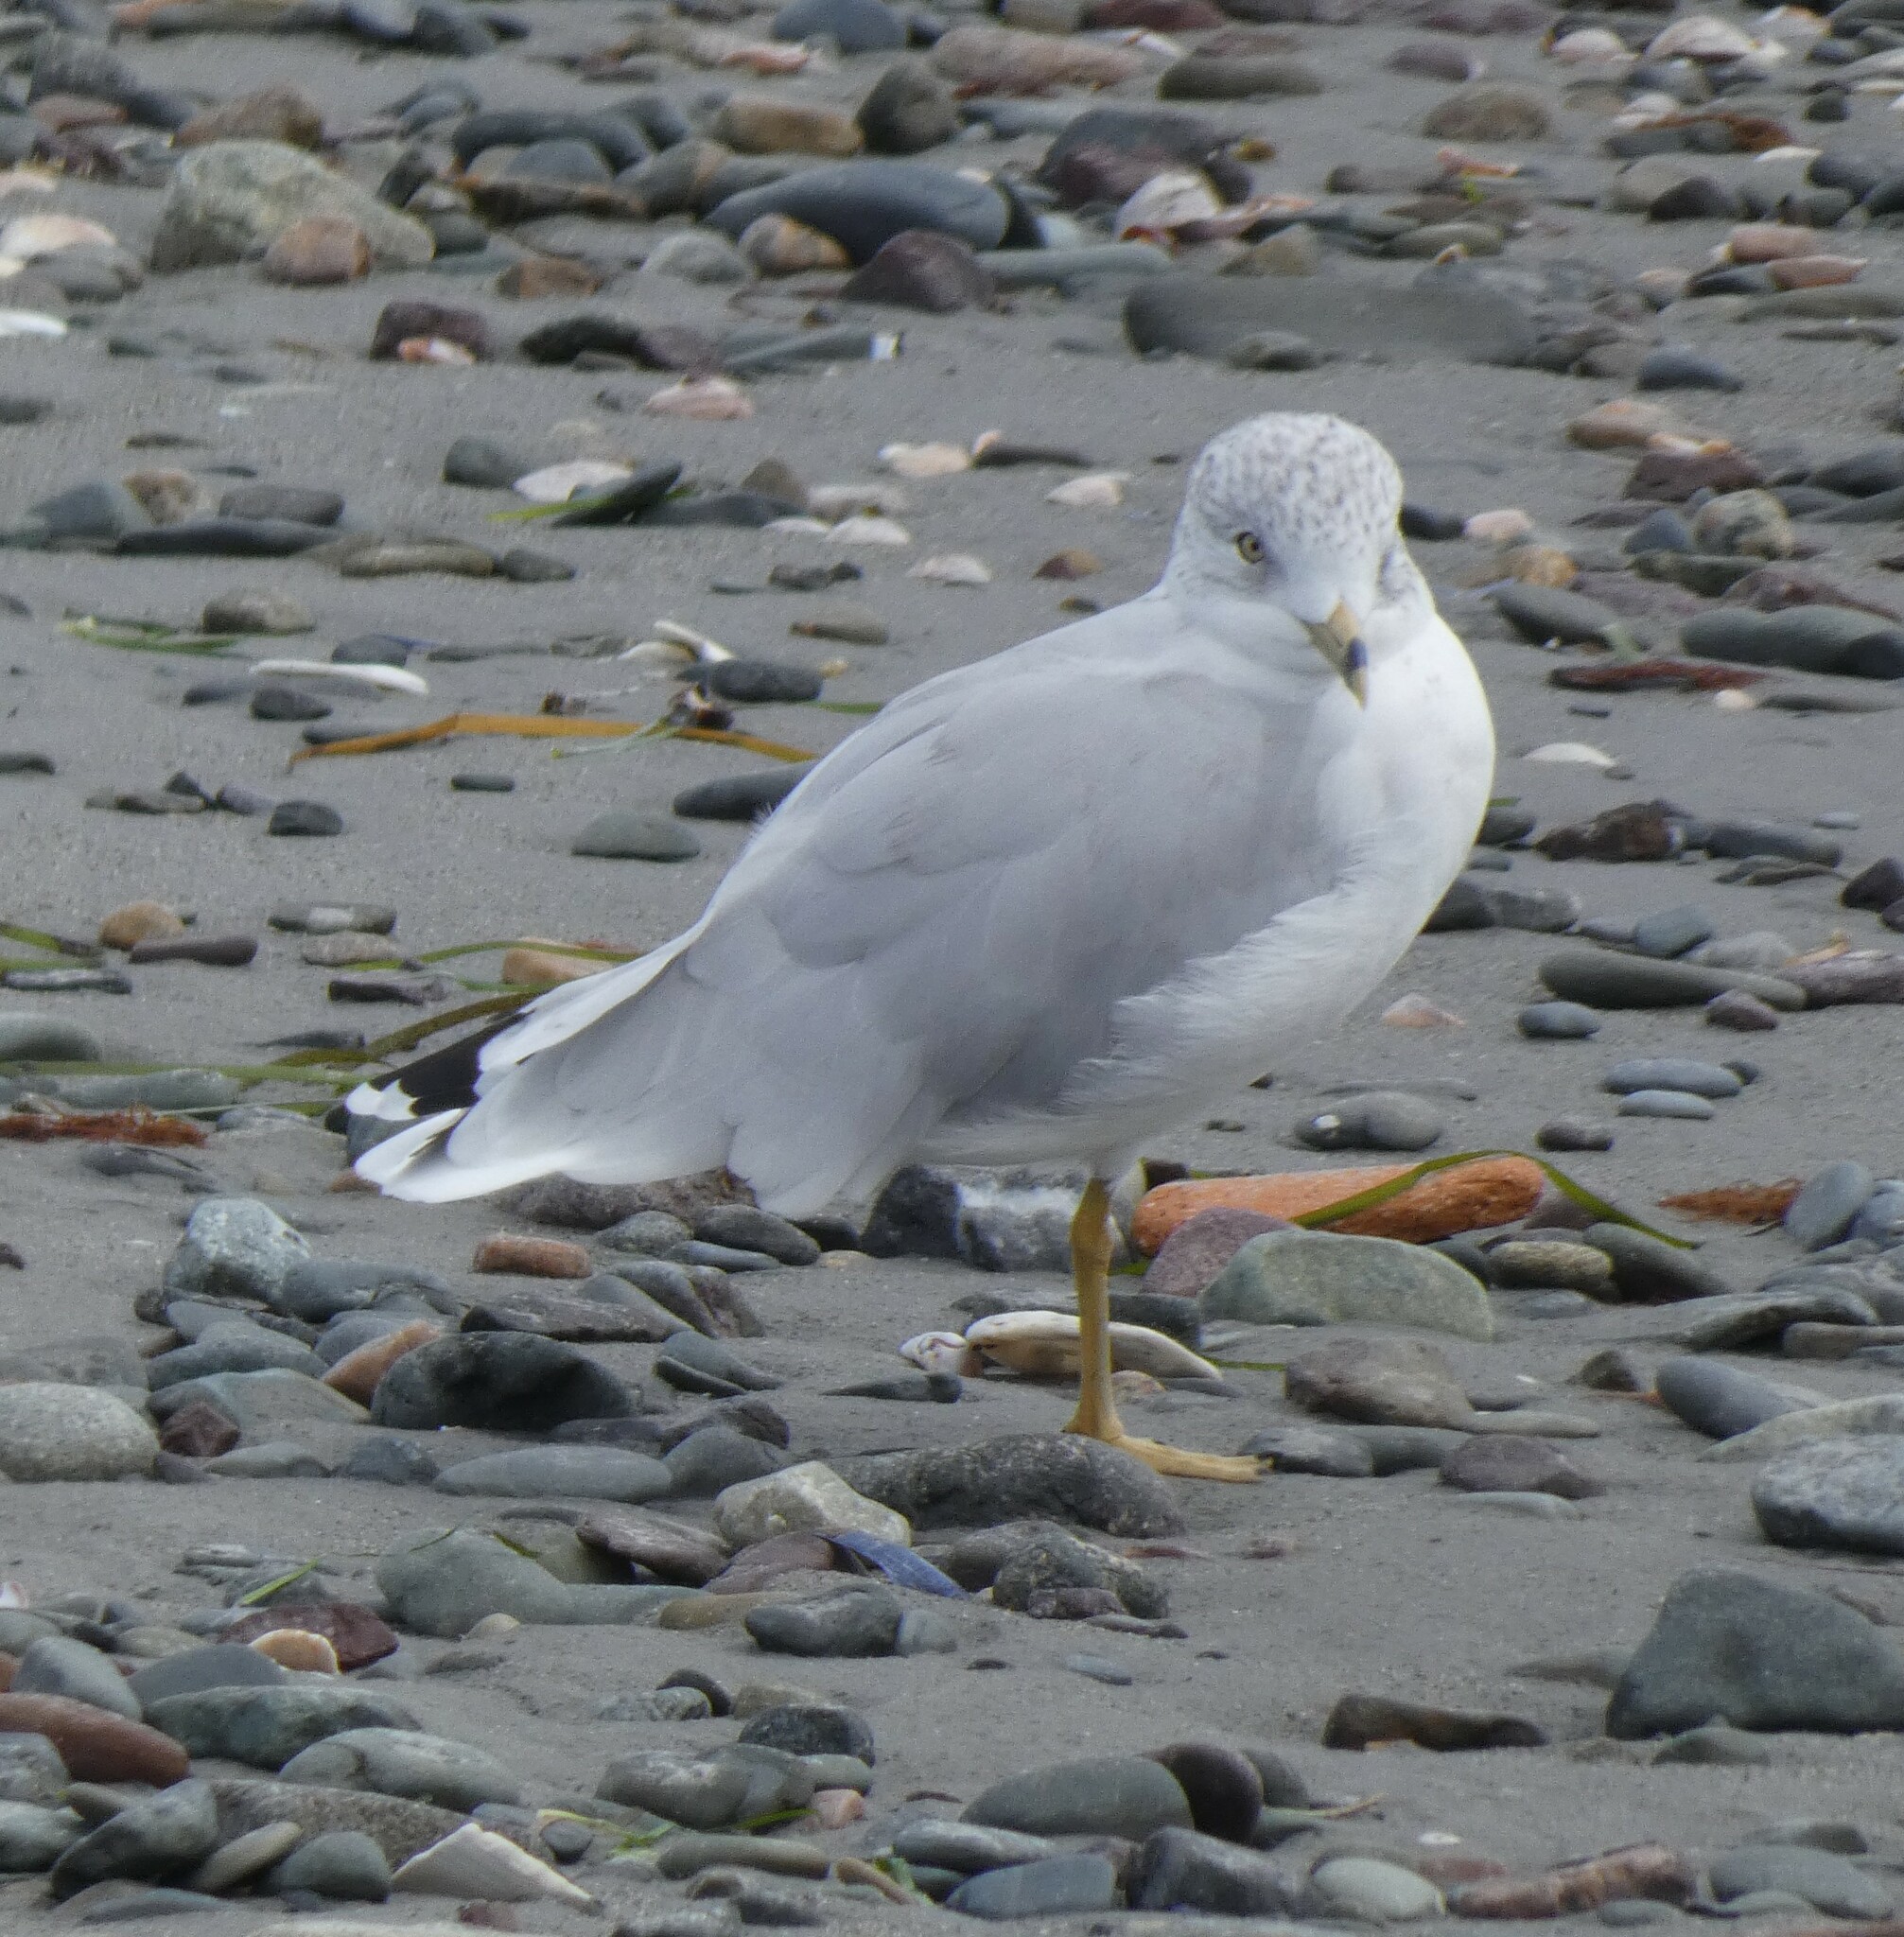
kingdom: Animalia
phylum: Chordata
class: Aves
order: Charadriiformes
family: Laridae
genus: Larus
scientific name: Larus delawarensis
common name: Ring-billed gull
